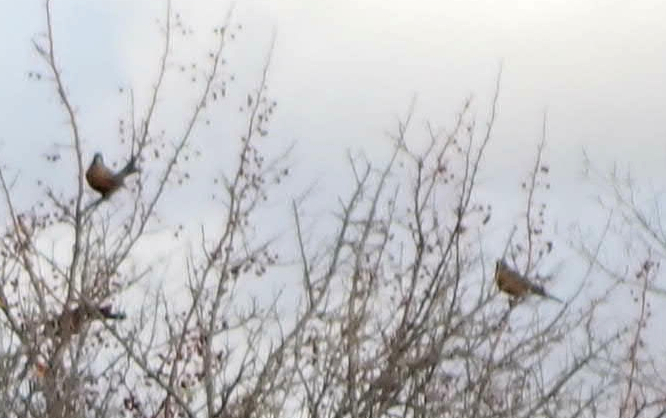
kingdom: Animalia
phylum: Chordata
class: Aves
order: Passeriformes
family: Turdidae
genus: Turdus
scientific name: Turdus migratorius
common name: American robin
